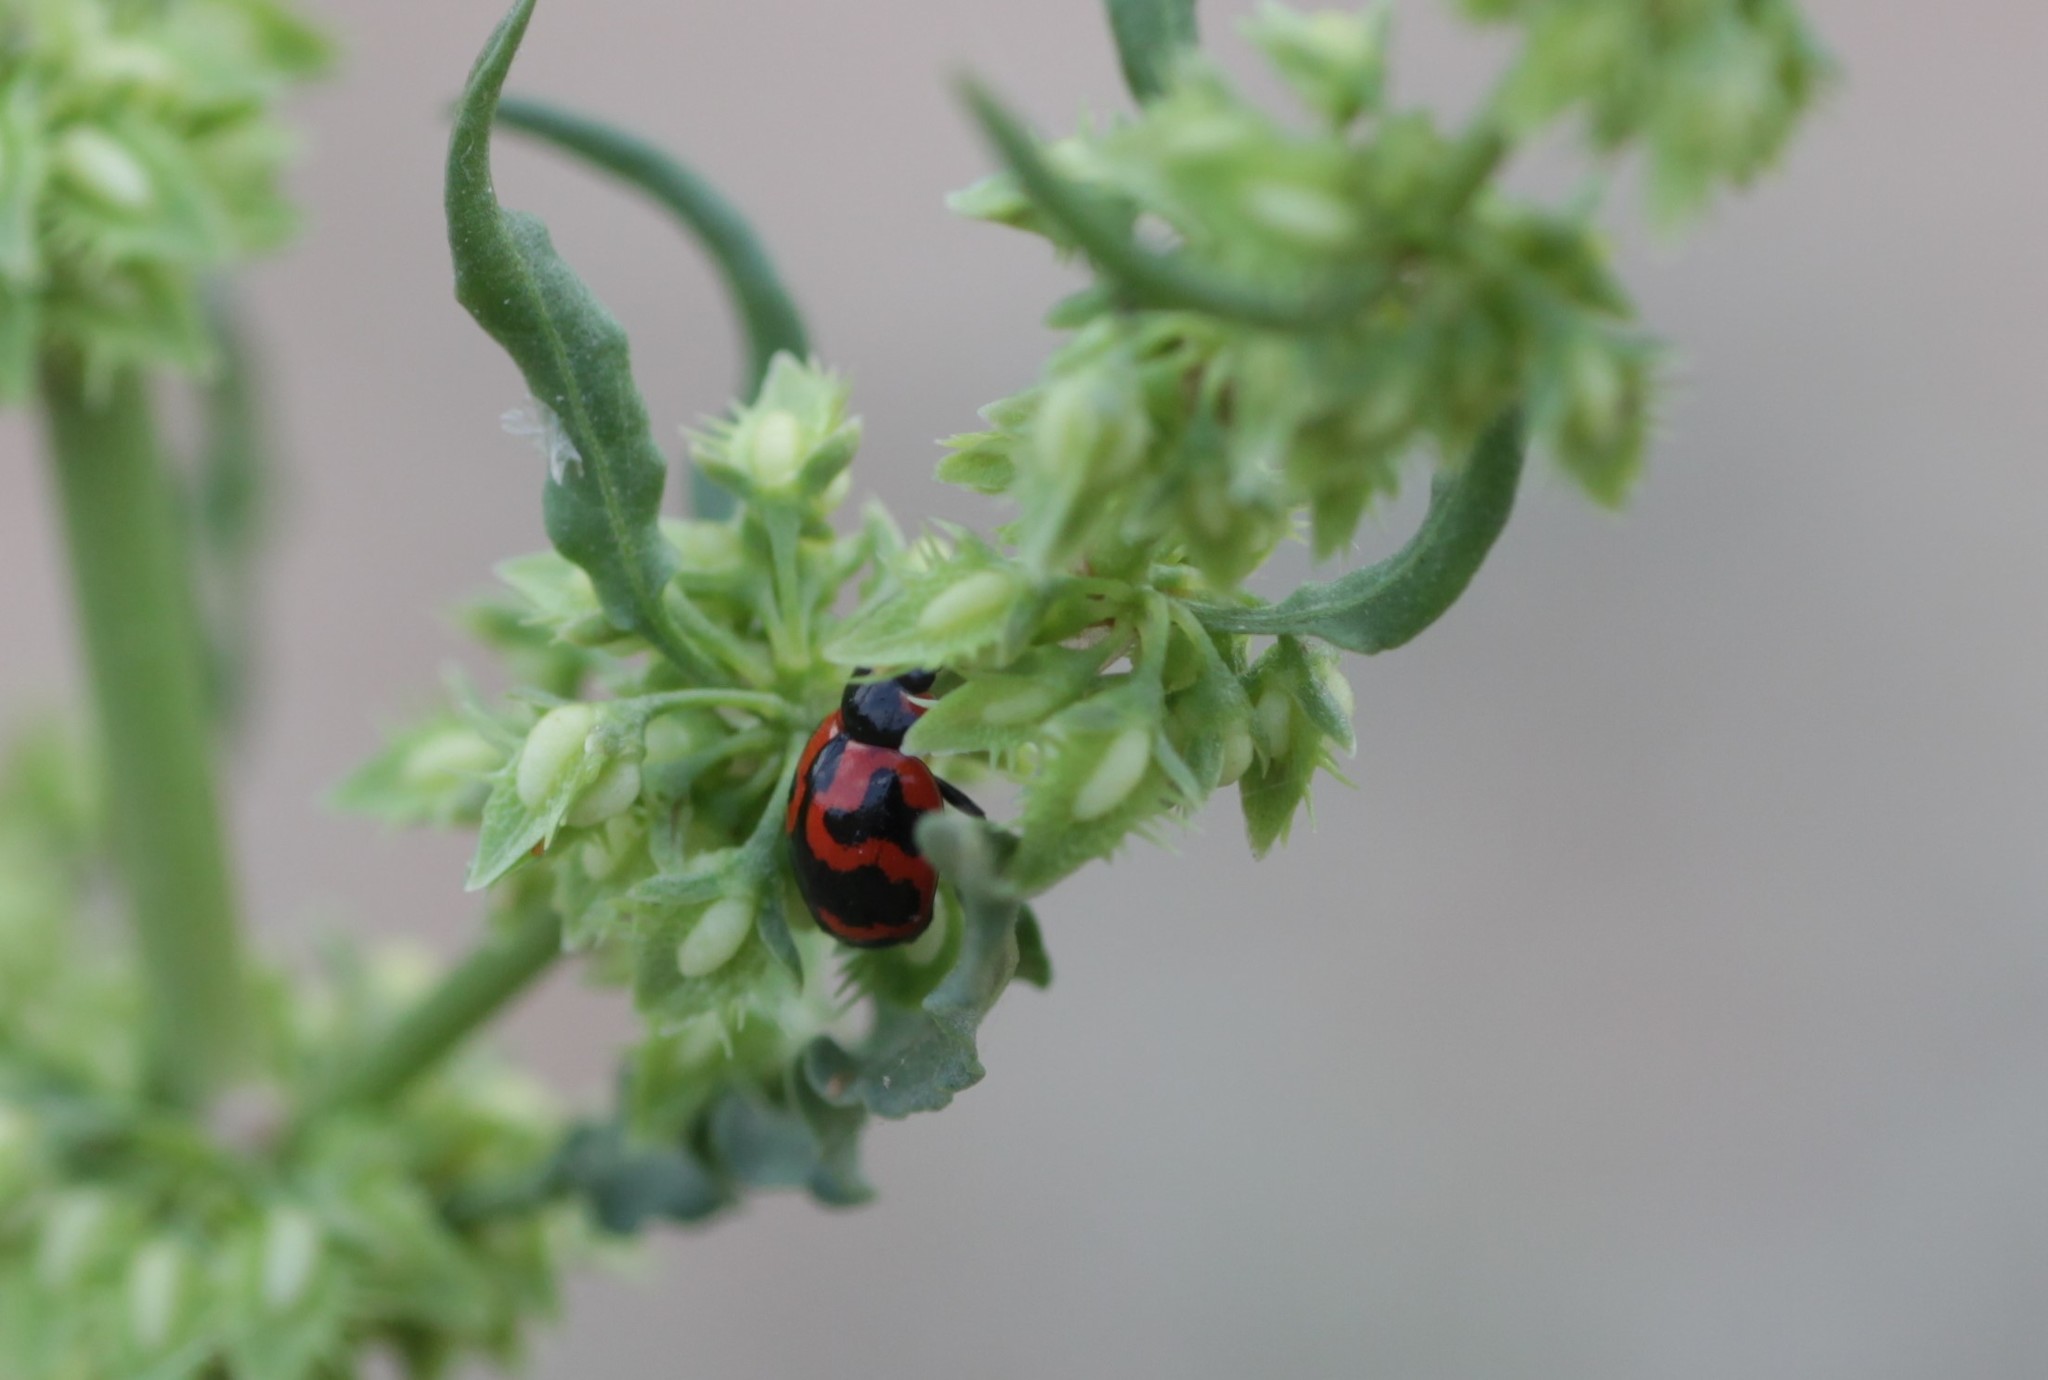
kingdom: Animalia
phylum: Arthropoda
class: Insecta
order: Coleoptera
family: Coccinellidae
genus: Coccinella
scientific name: Coccinella transversalis
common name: Transverse lady beetle
